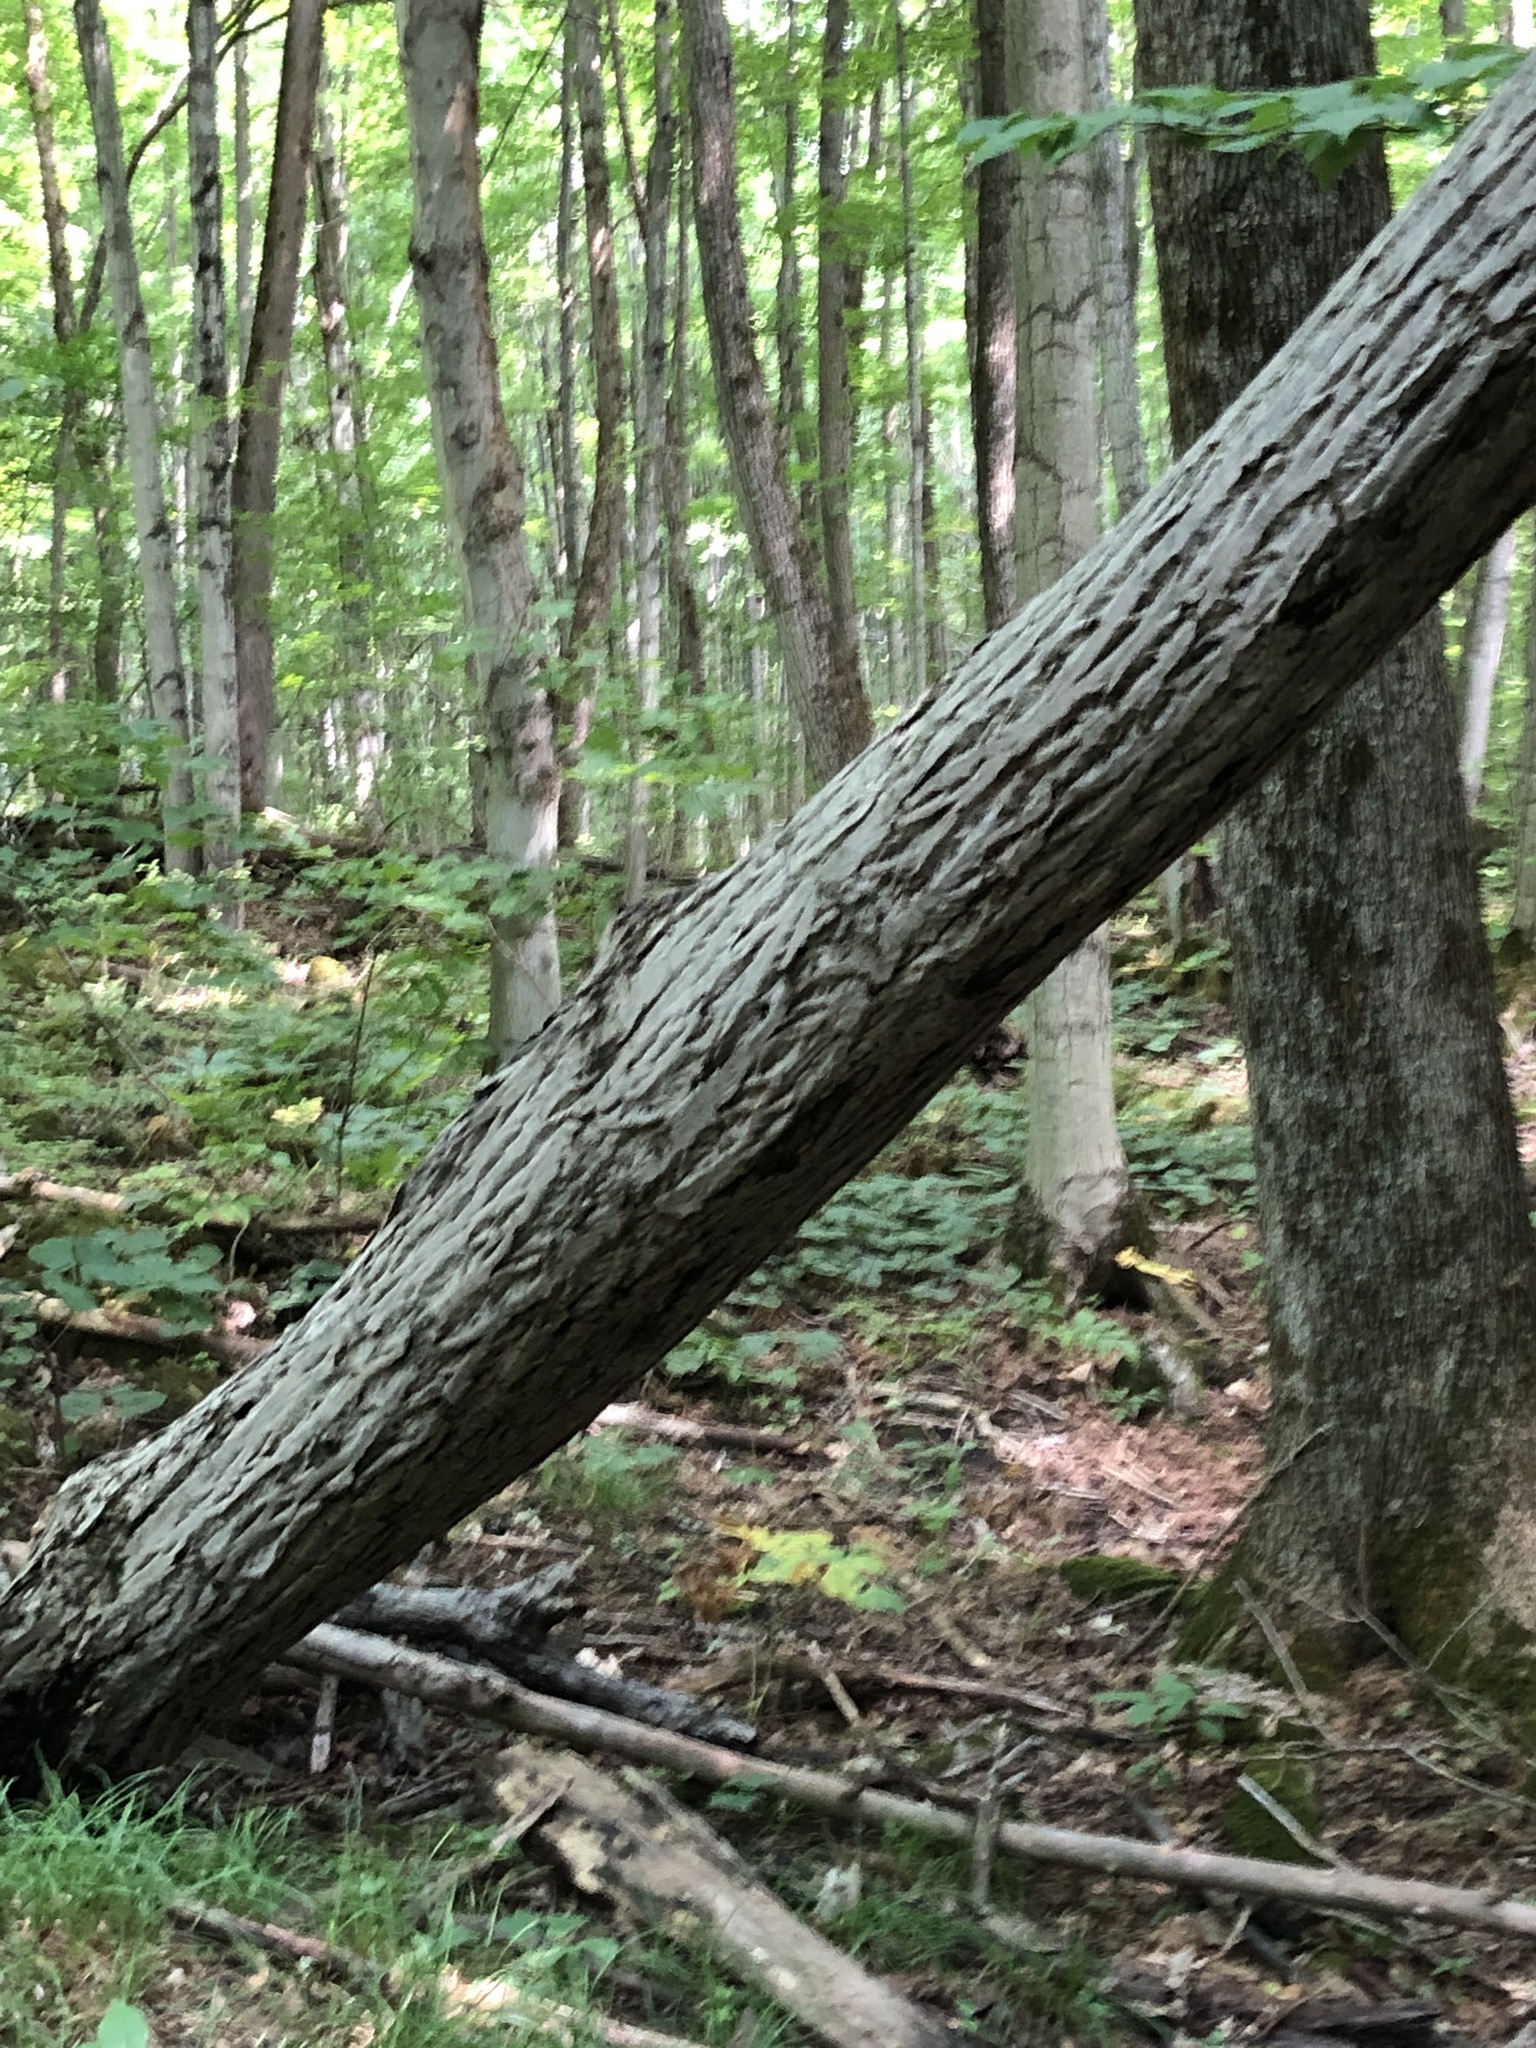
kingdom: Plantae
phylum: Tracheophyta
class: Magnoliopsida
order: Fagales
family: Juglandaceae
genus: Juglans
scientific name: Juglans cinerea
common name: Butternut
